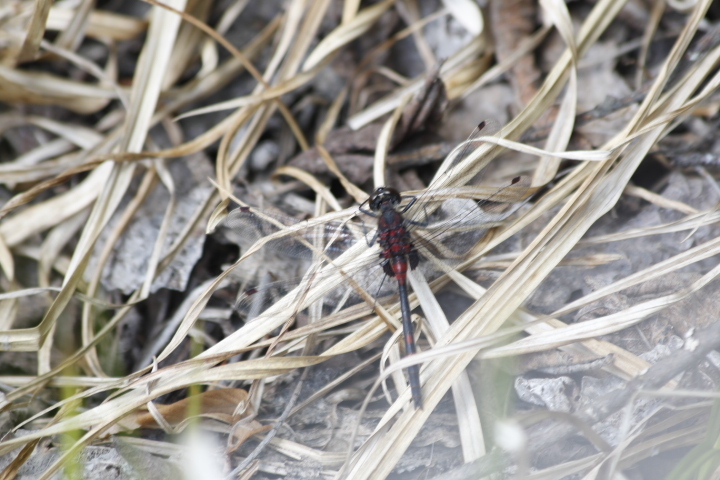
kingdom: Animalia
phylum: Arthropoda
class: Insecta
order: Odonata
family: Libellulidae
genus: Leucorrhinia
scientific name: Leucorrhinia dubia
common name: White-faced darter
